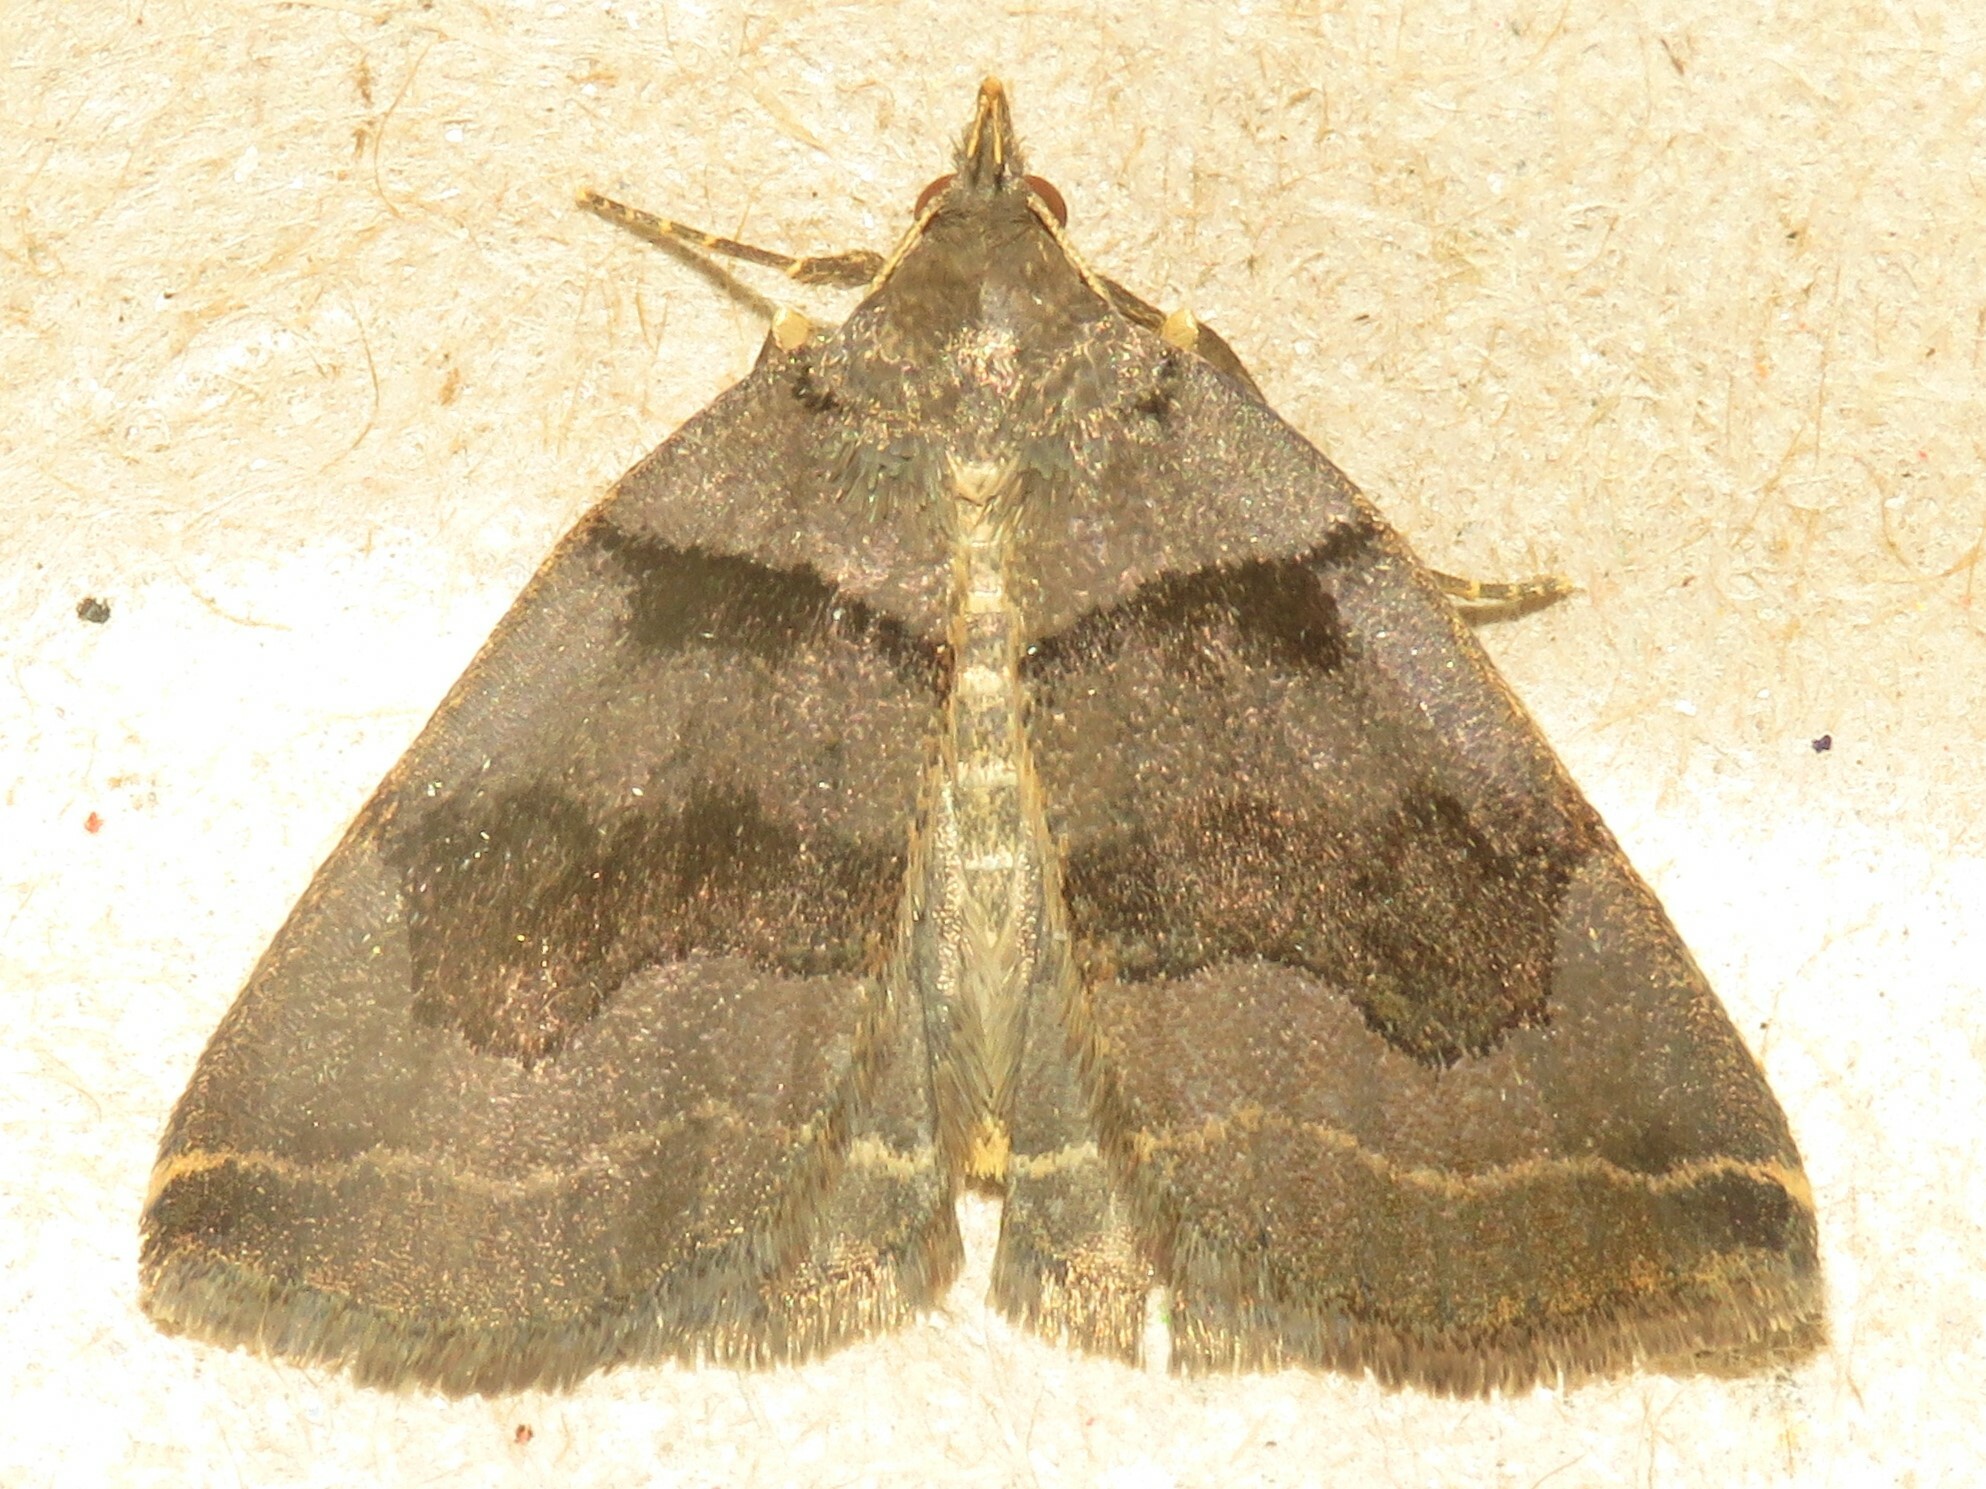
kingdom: Animalia
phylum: Arthropoda
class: Insecta
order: Lepidoptera
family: Erebidae
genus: Zanclognatha
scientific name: Zanclognatha laevigata
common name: Variable fan-foot
